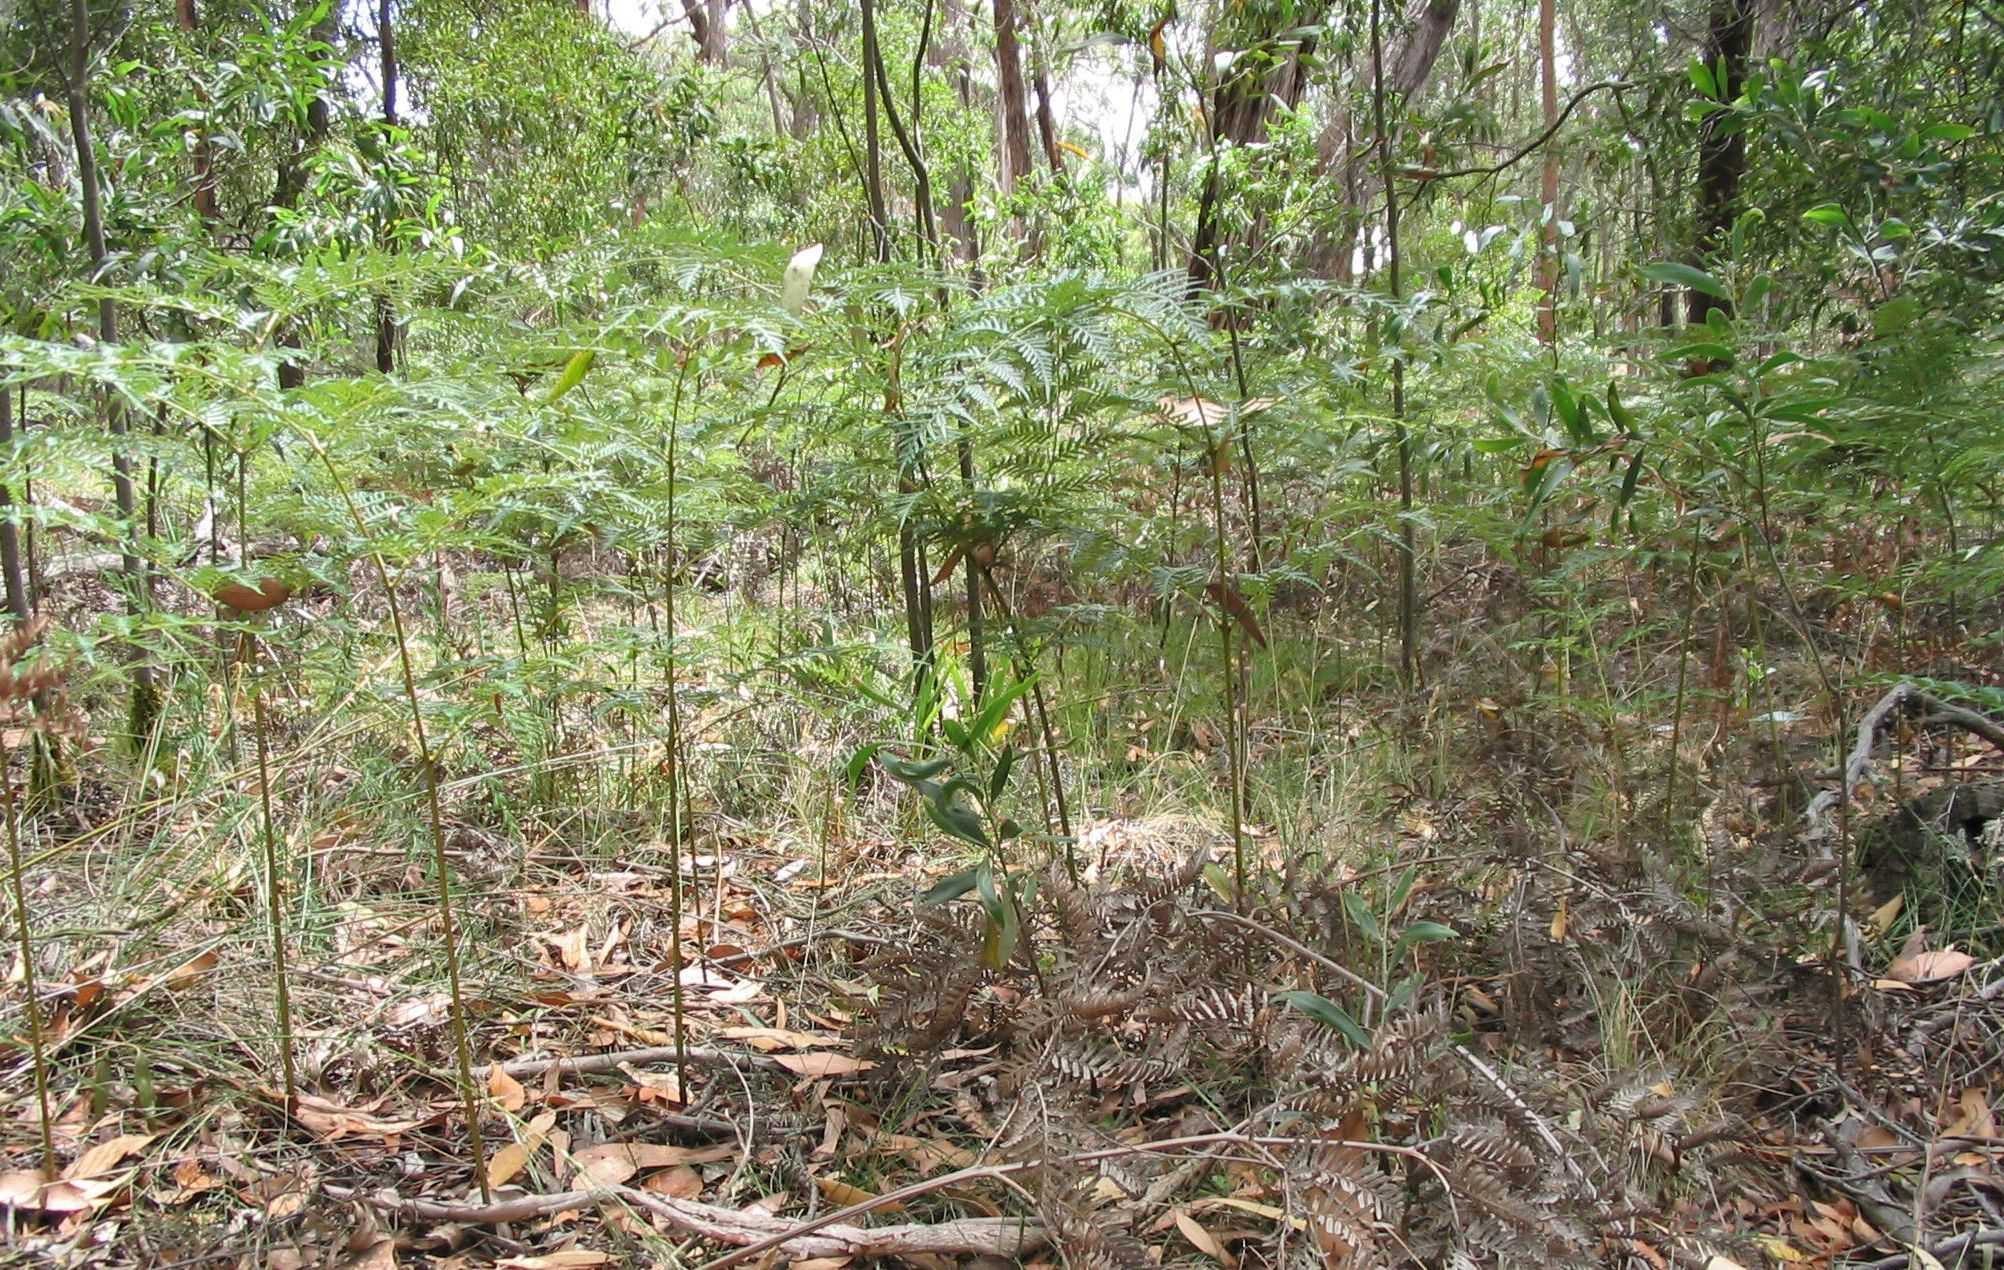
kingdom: Plantae
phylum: Tracheophyta
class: Polypodiopsida
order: Polypodiales
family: Dennstaedtiaceae
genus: Pteridium
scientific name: Pteridium esculentum
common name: Bracken fern
